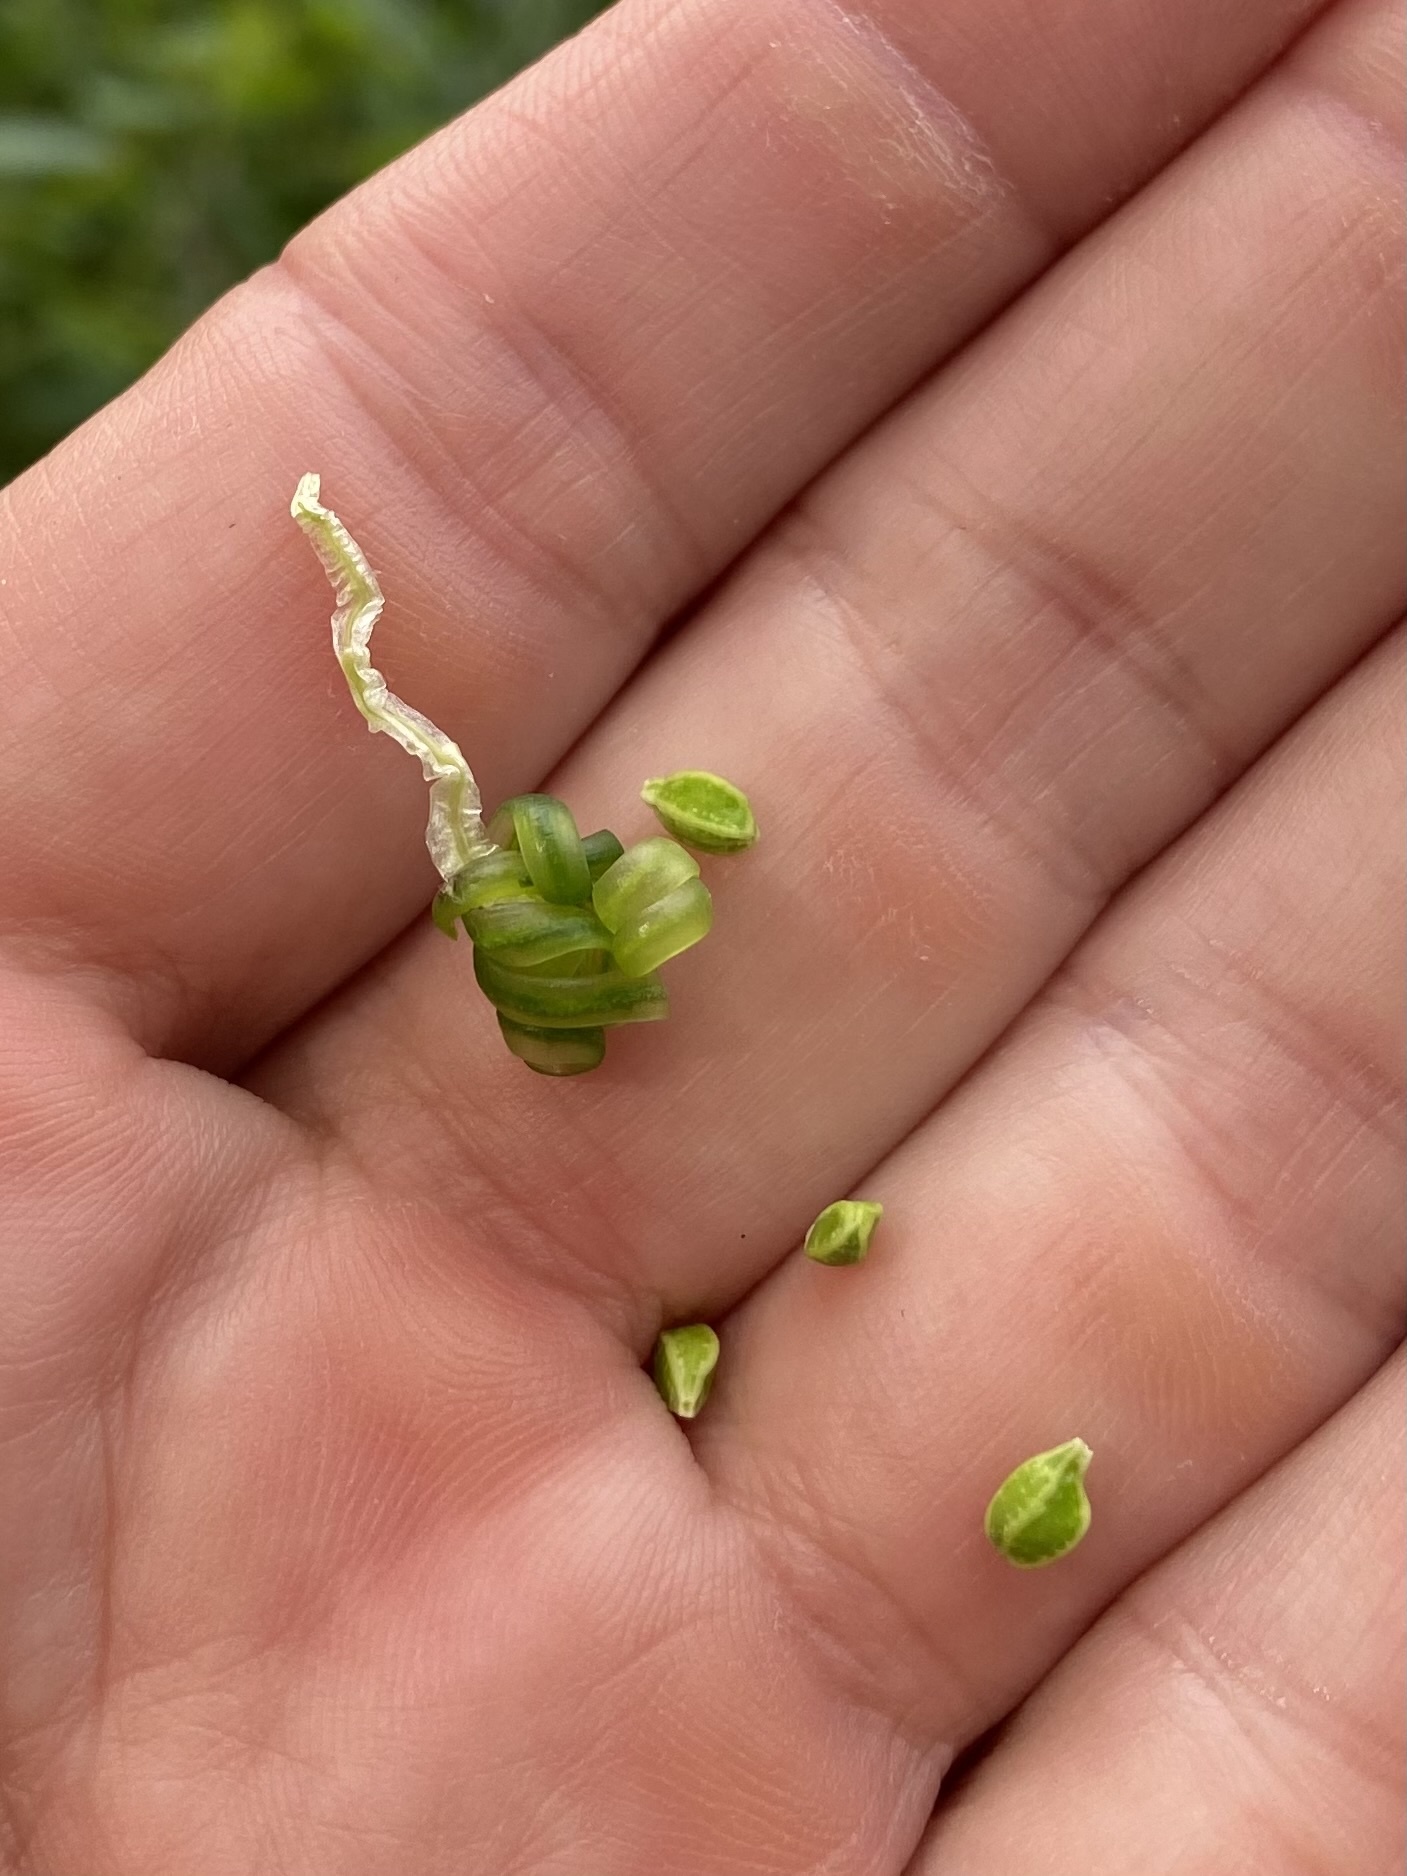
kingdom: Plantae
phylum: Tracheophyta
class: Magnoliopsida
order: Ericales
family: Balsaminaceae
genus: Impatiens
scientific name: Impatiens capensis
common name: Orange balsam
